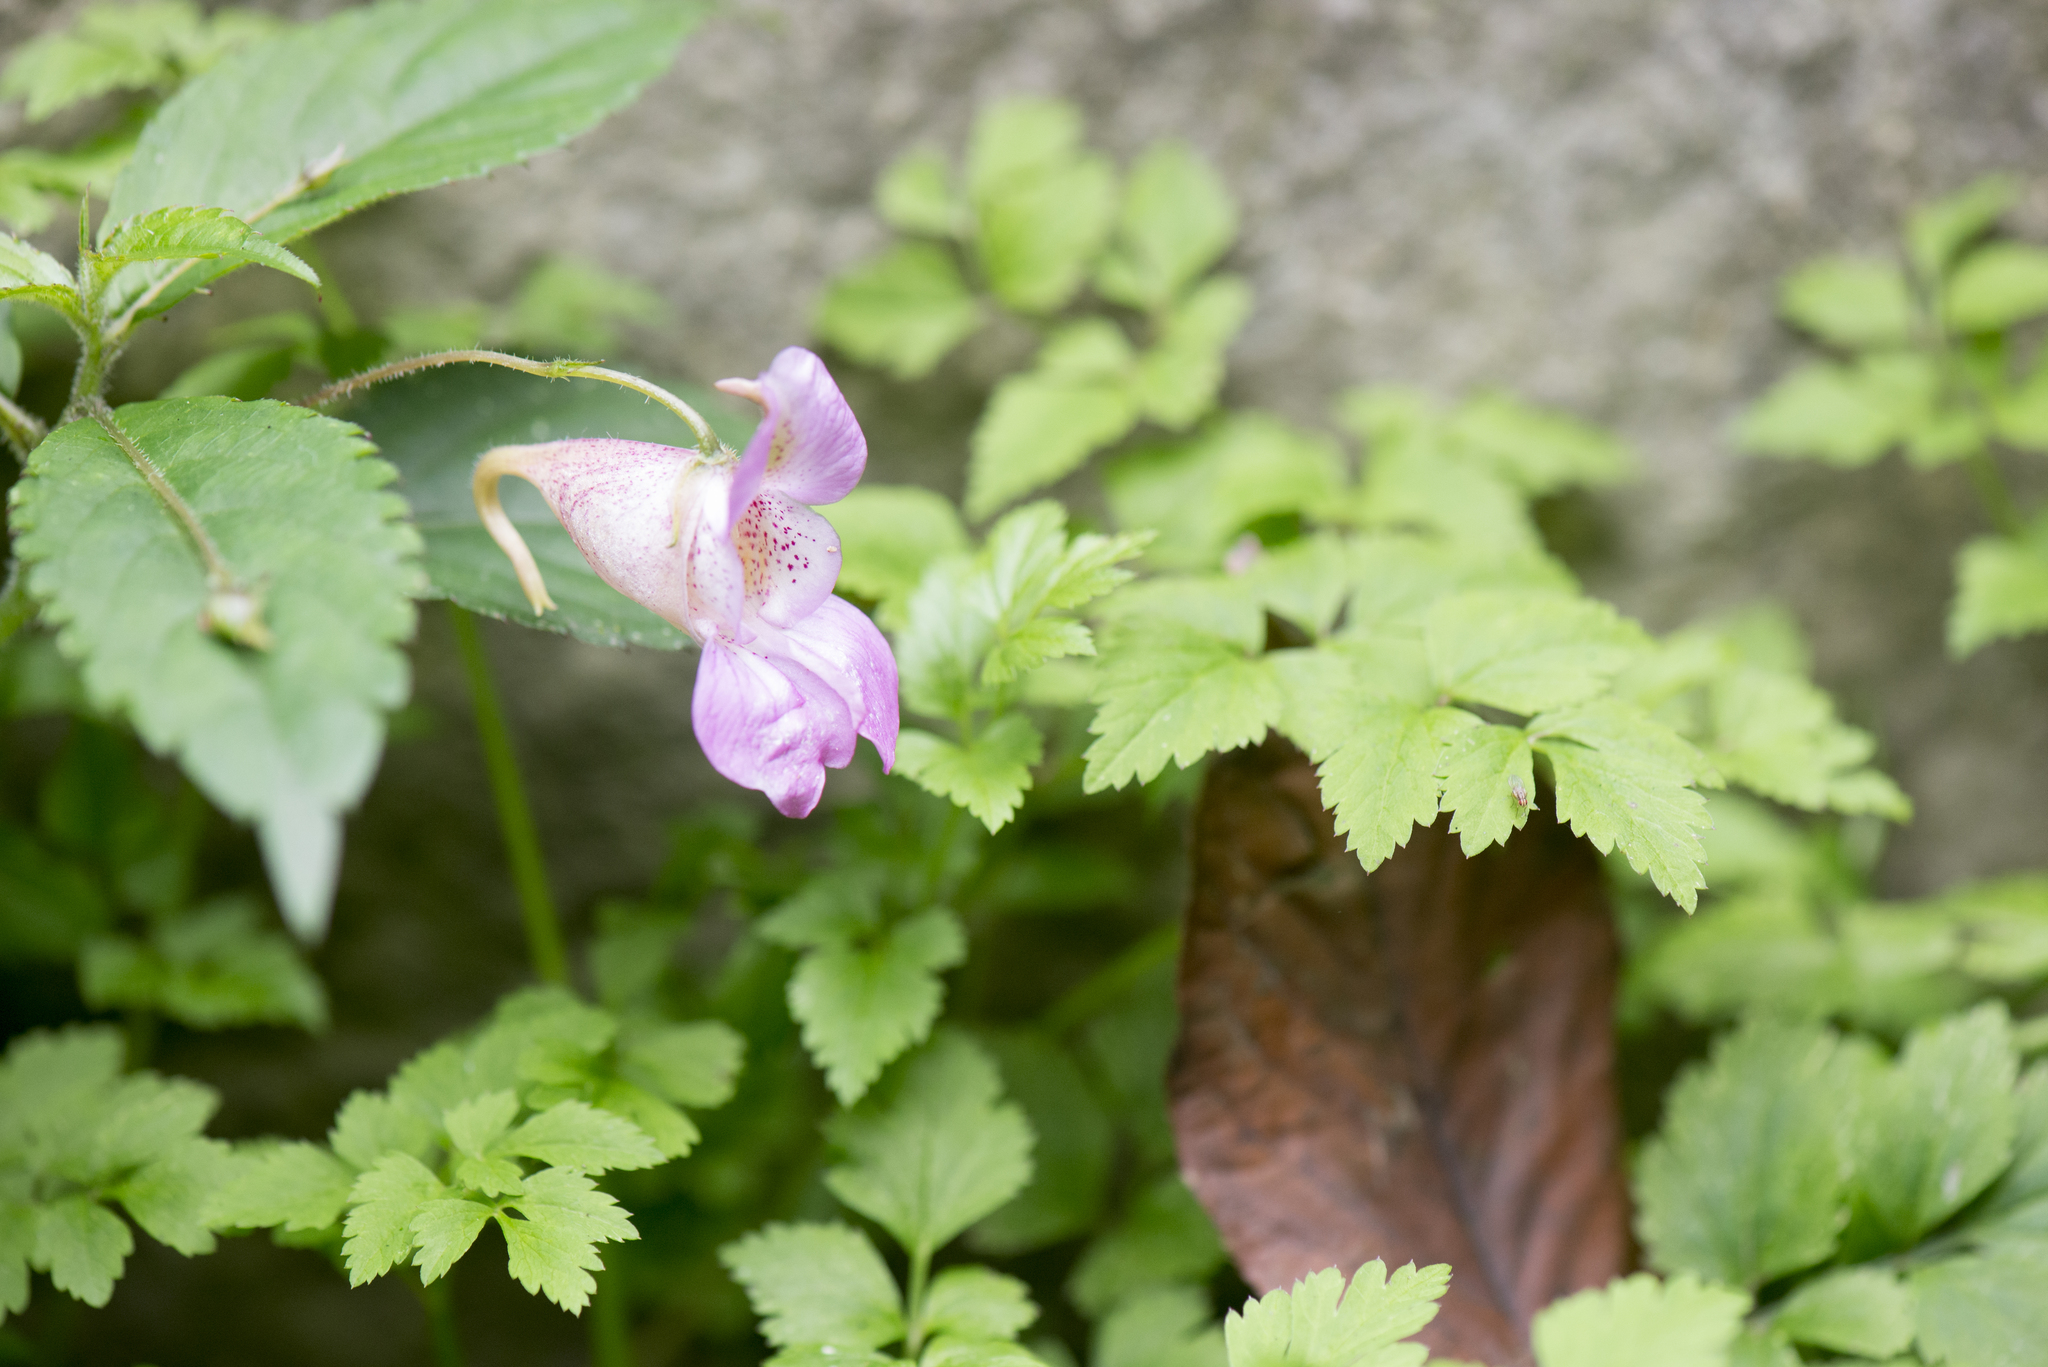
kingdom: Plantae
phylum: Tracheophyta
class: Magnoliopsida
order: Ericales
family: Balsaminaceae
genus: Impatiens
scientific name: Impatiens uniflora
